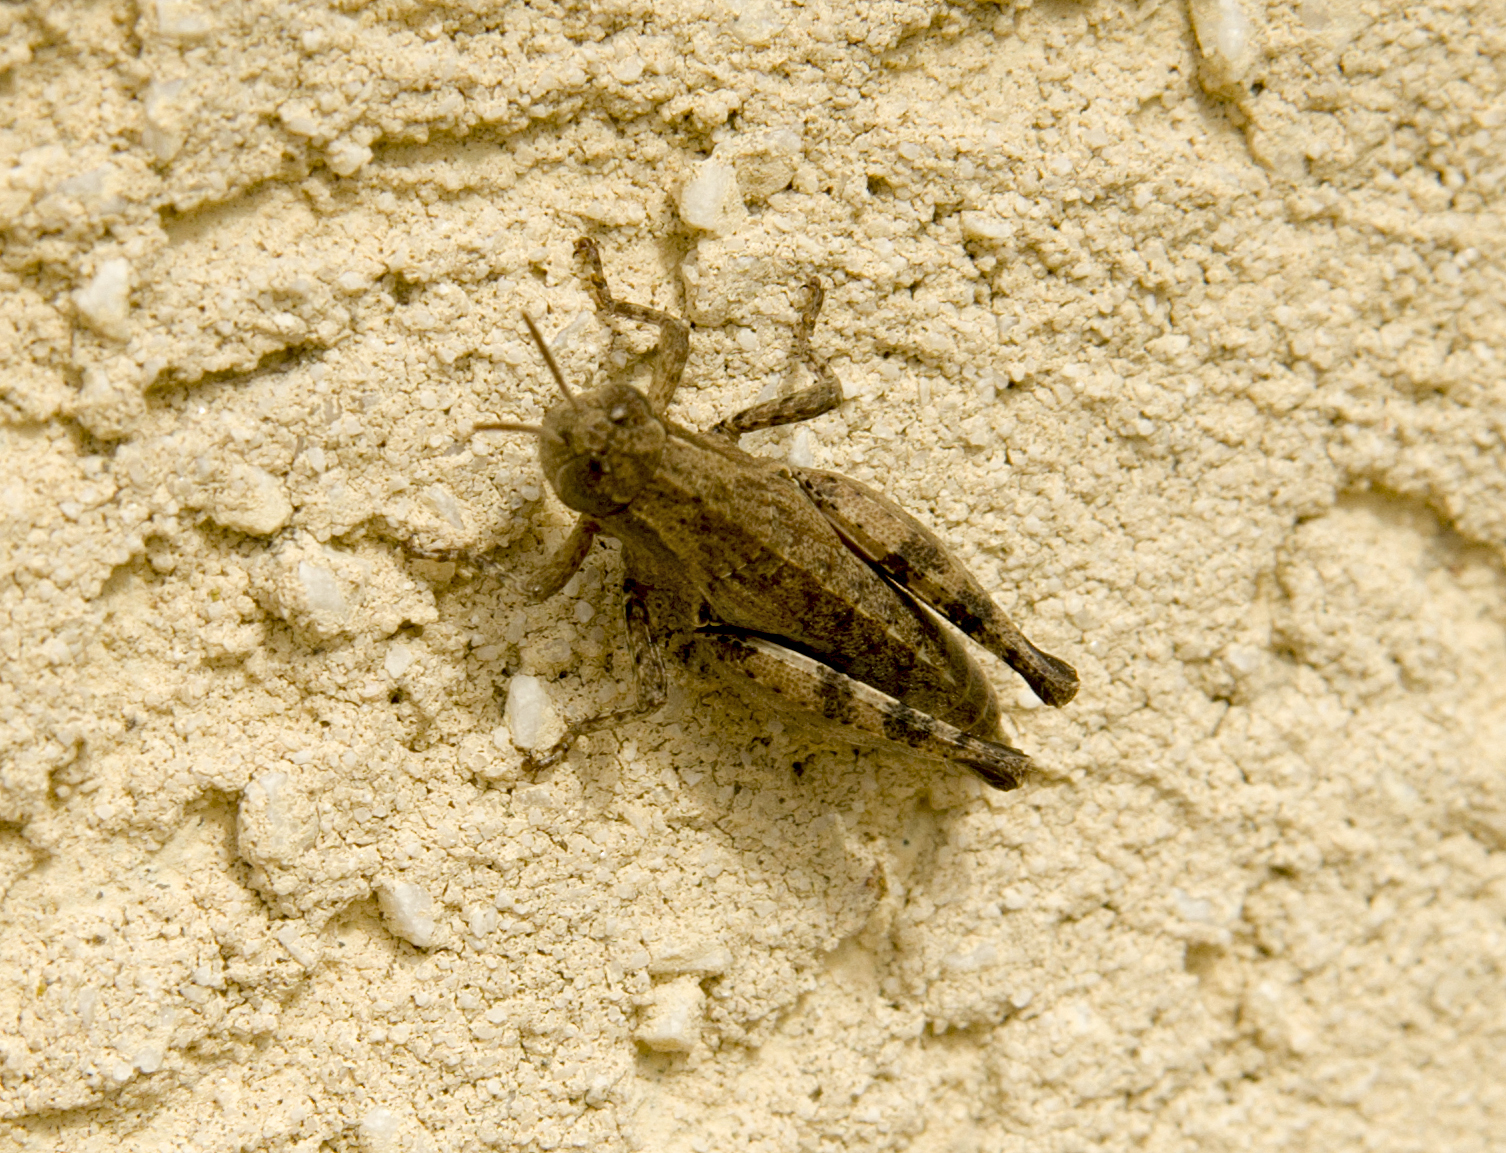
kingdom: Animalia
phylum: Arthropoda
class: Insecta
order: Orthoptera
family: Acrididae
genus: Pezotettix
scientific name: Pezotettix giornae
